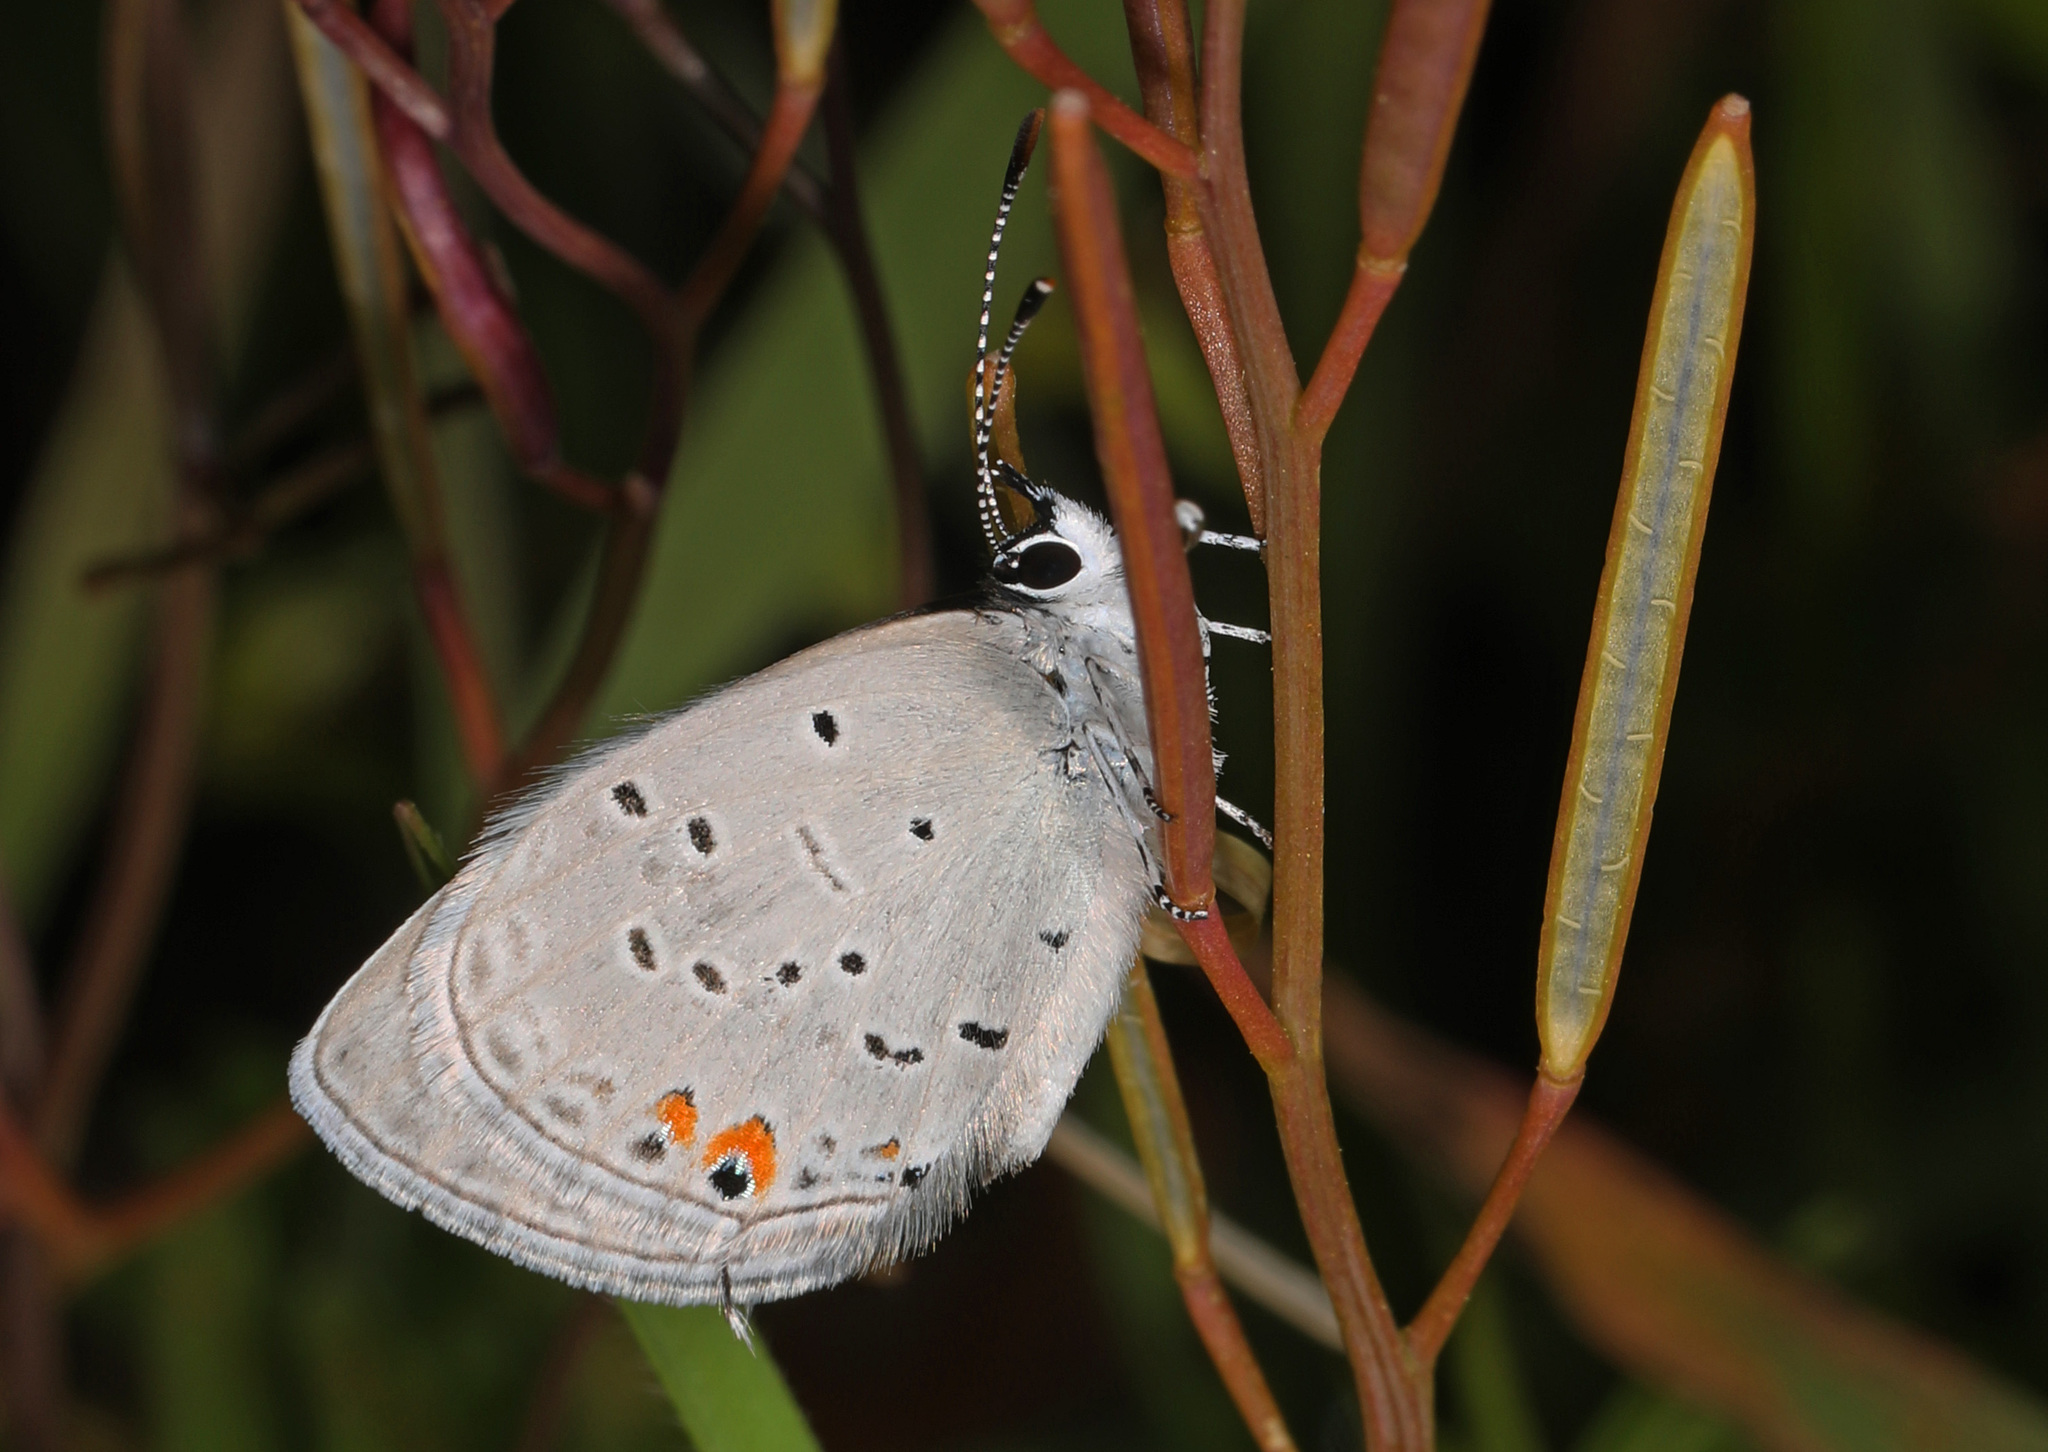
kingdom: Animalia
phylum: Arthropoda
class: Insecta
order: Lepidoptera
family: Lycaenidae
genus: Elkalyce
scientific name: Elkalyce comyntas
